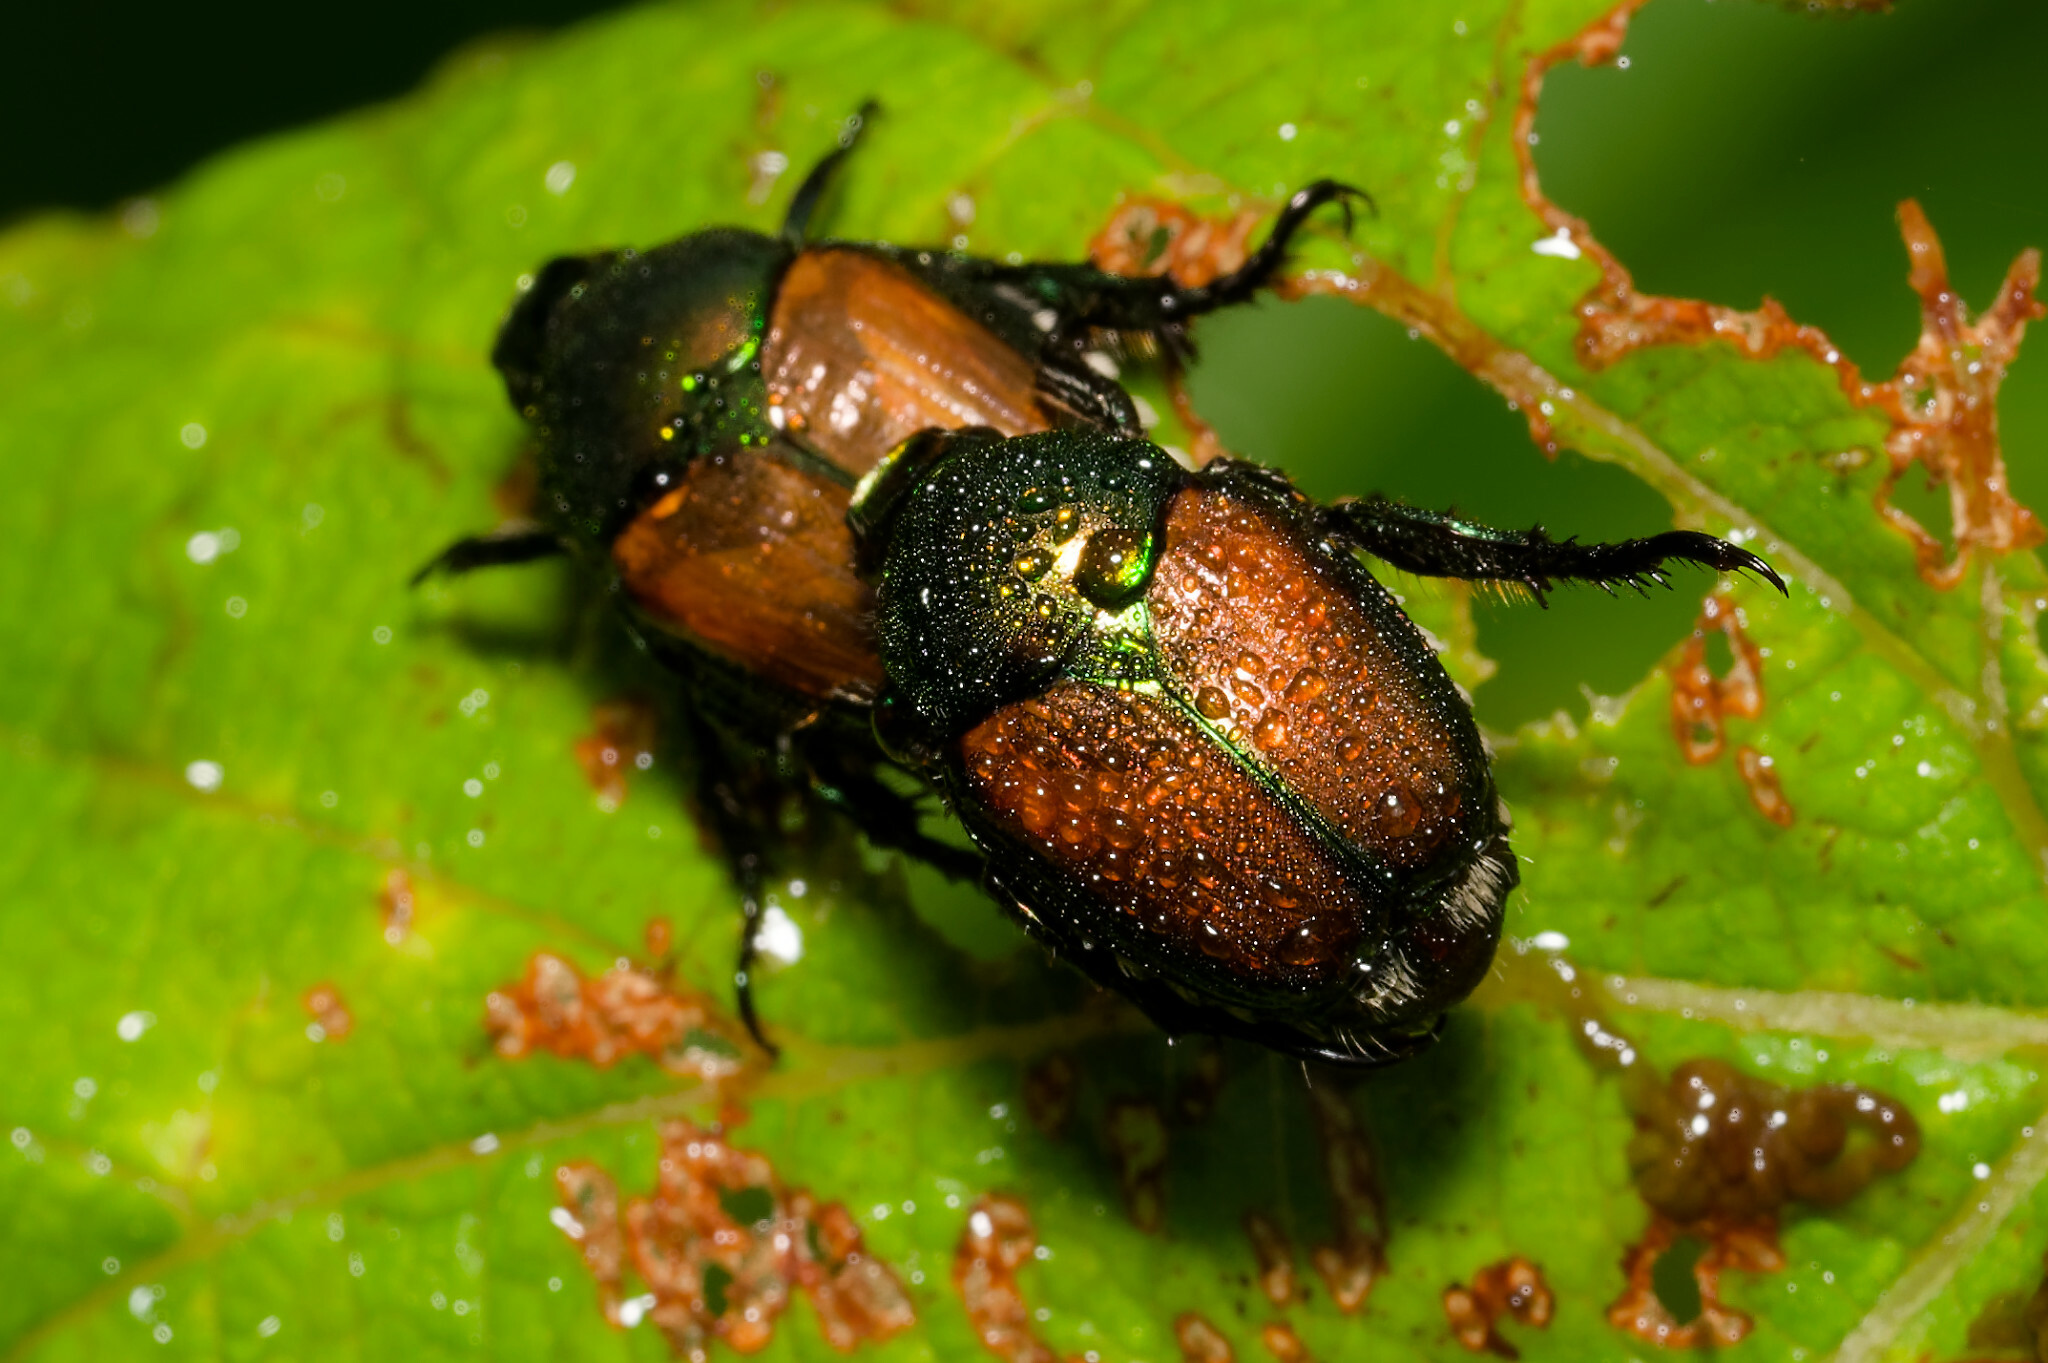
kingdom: Animalia
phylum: Arthropoda
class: Insecta
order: Coleoptera
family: Scarabaeidae
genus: Popillia
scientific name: Popillia japonica
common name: Japanese beetle
